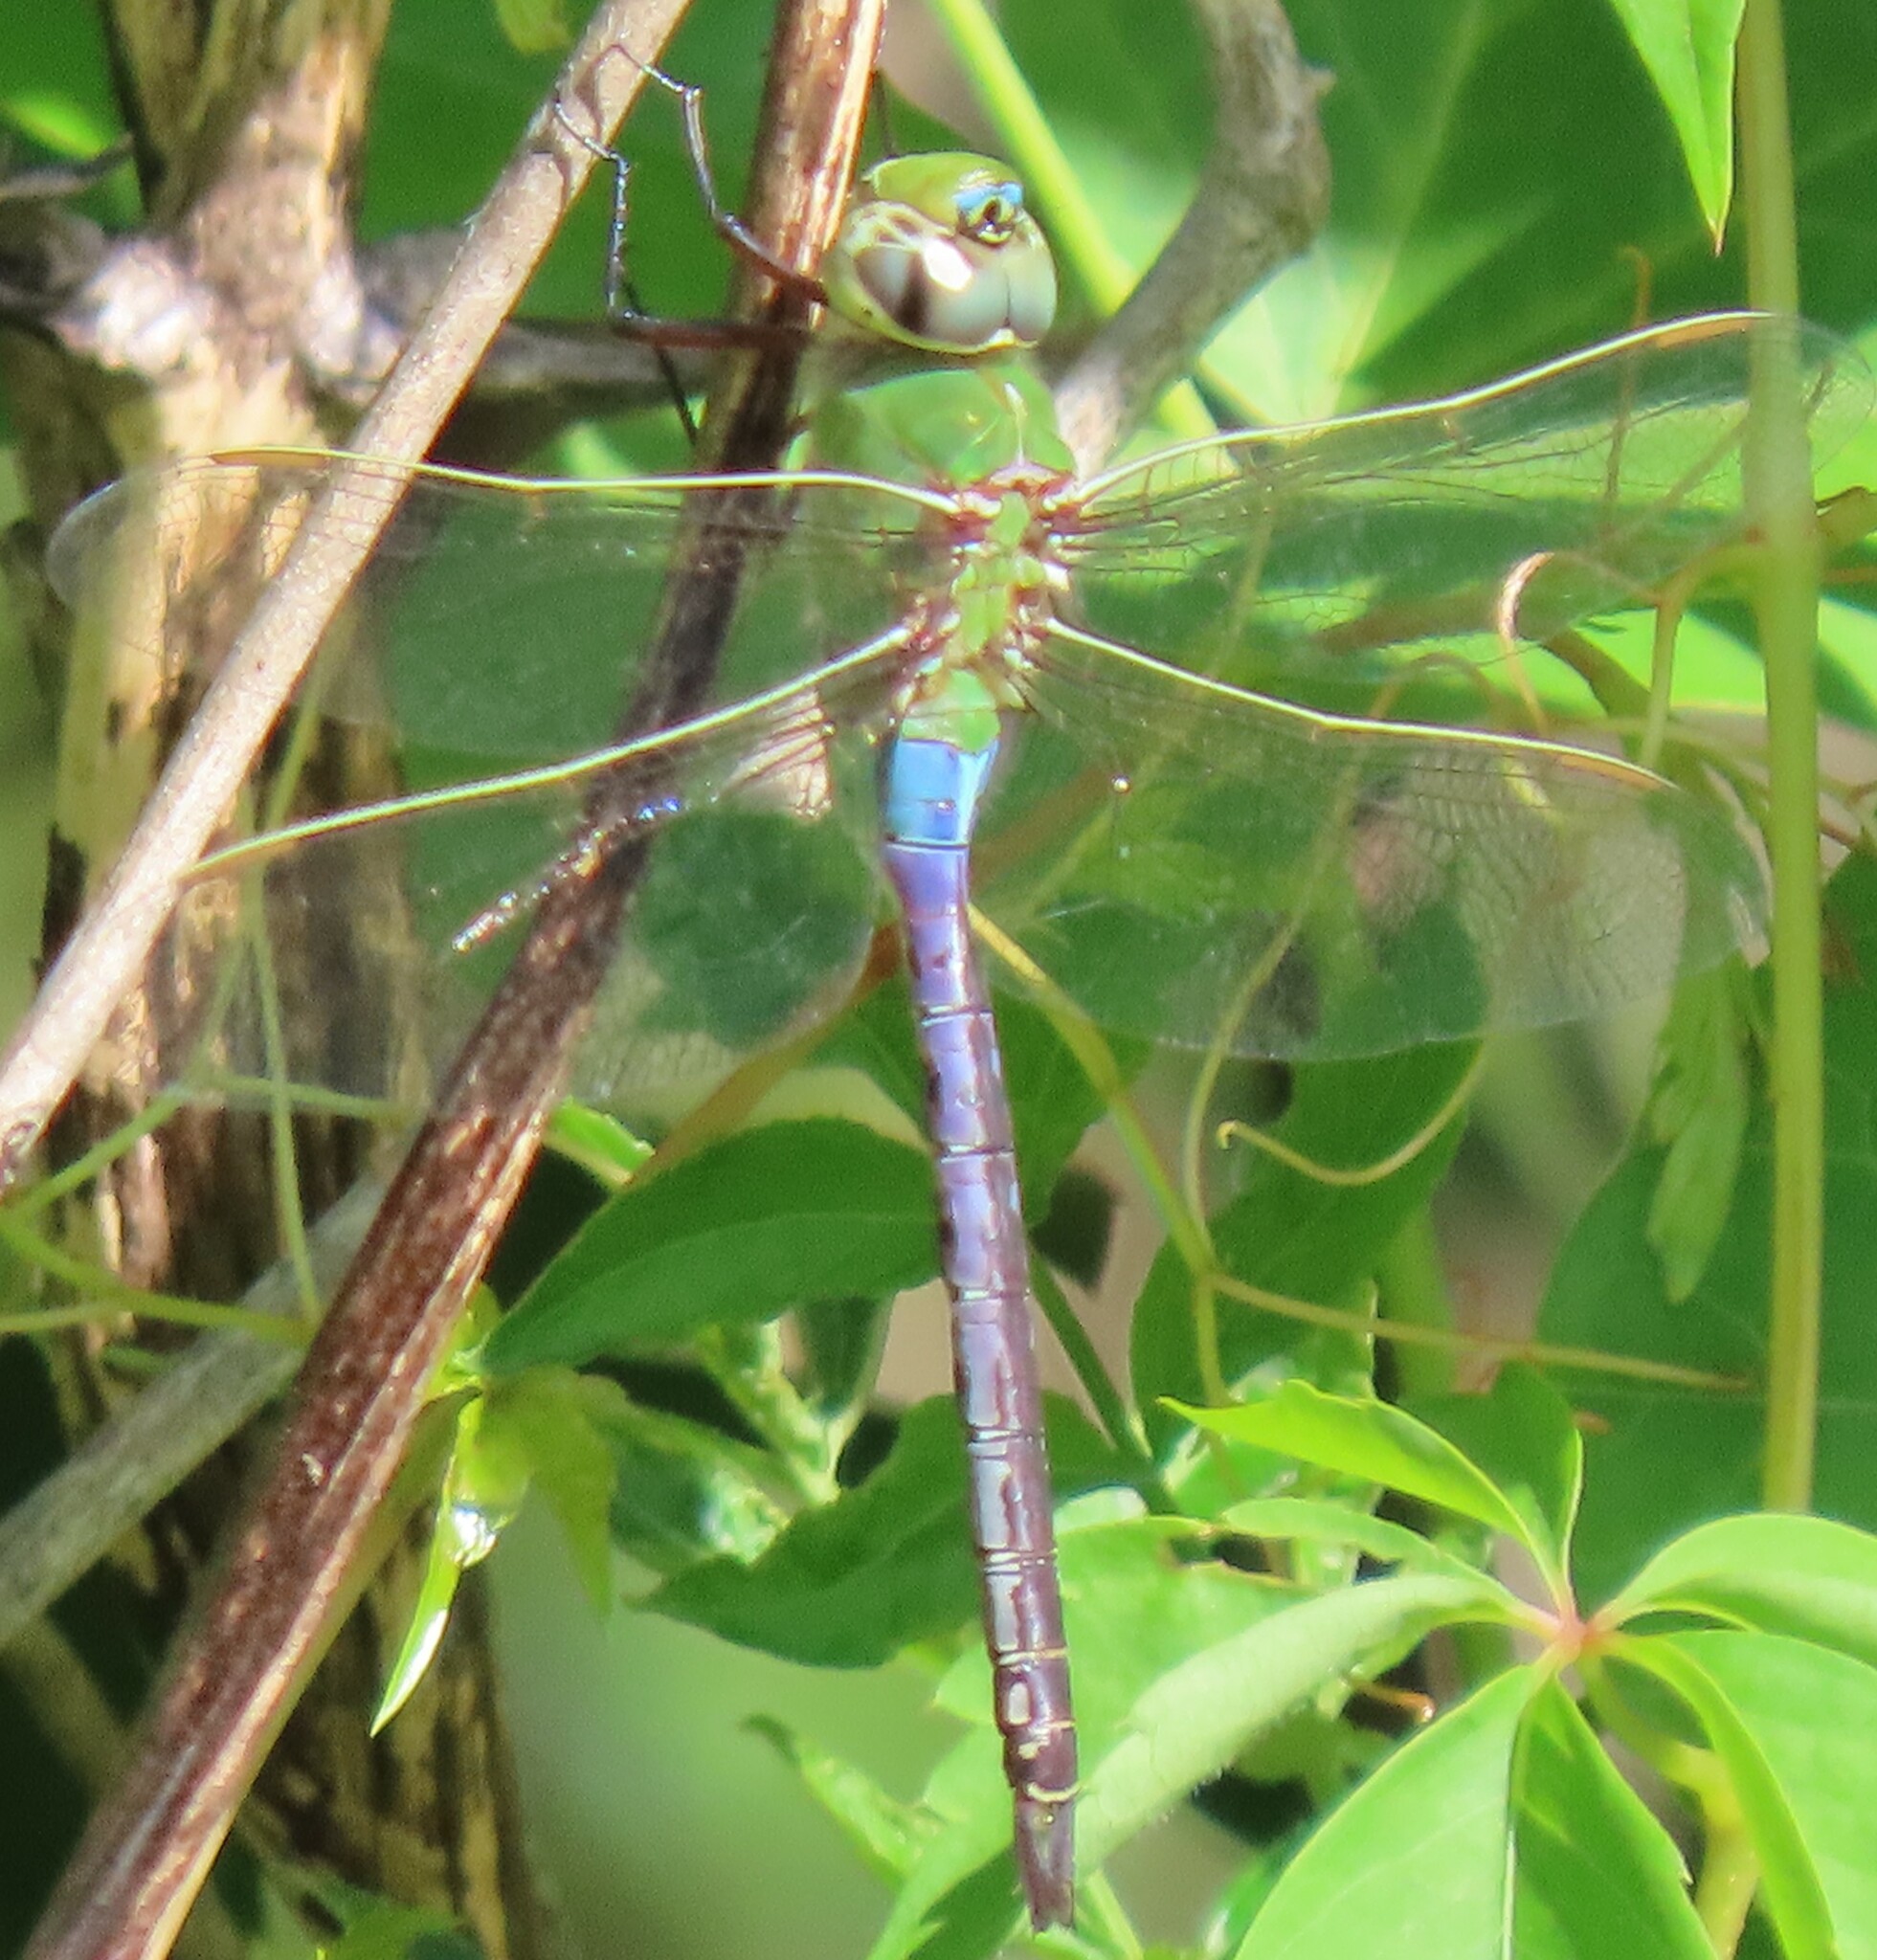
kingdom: Animalia
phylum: Arthropoda
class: Insecta
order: Odonata
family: Aeshnidae
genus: Anax
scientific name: Anax junius
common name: Common green darner
